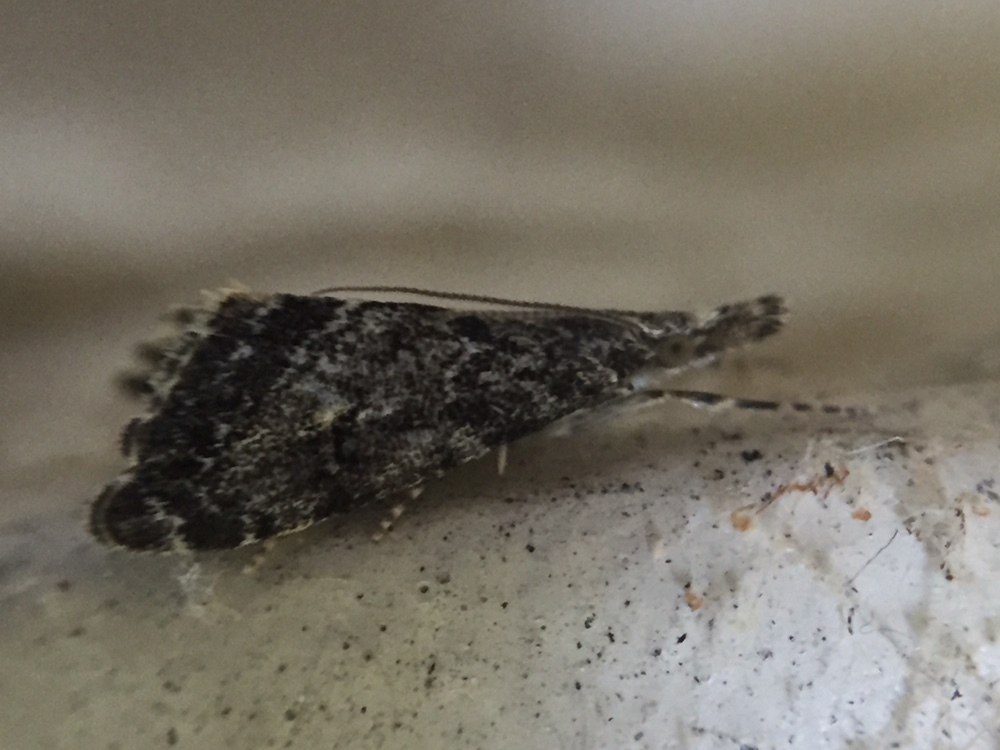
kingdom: Animalia
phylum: Arthropoda
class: Insecta
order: Lepidoptera
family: Crambidae
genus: Glaucocharis
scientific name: Glaucocharis elaina
